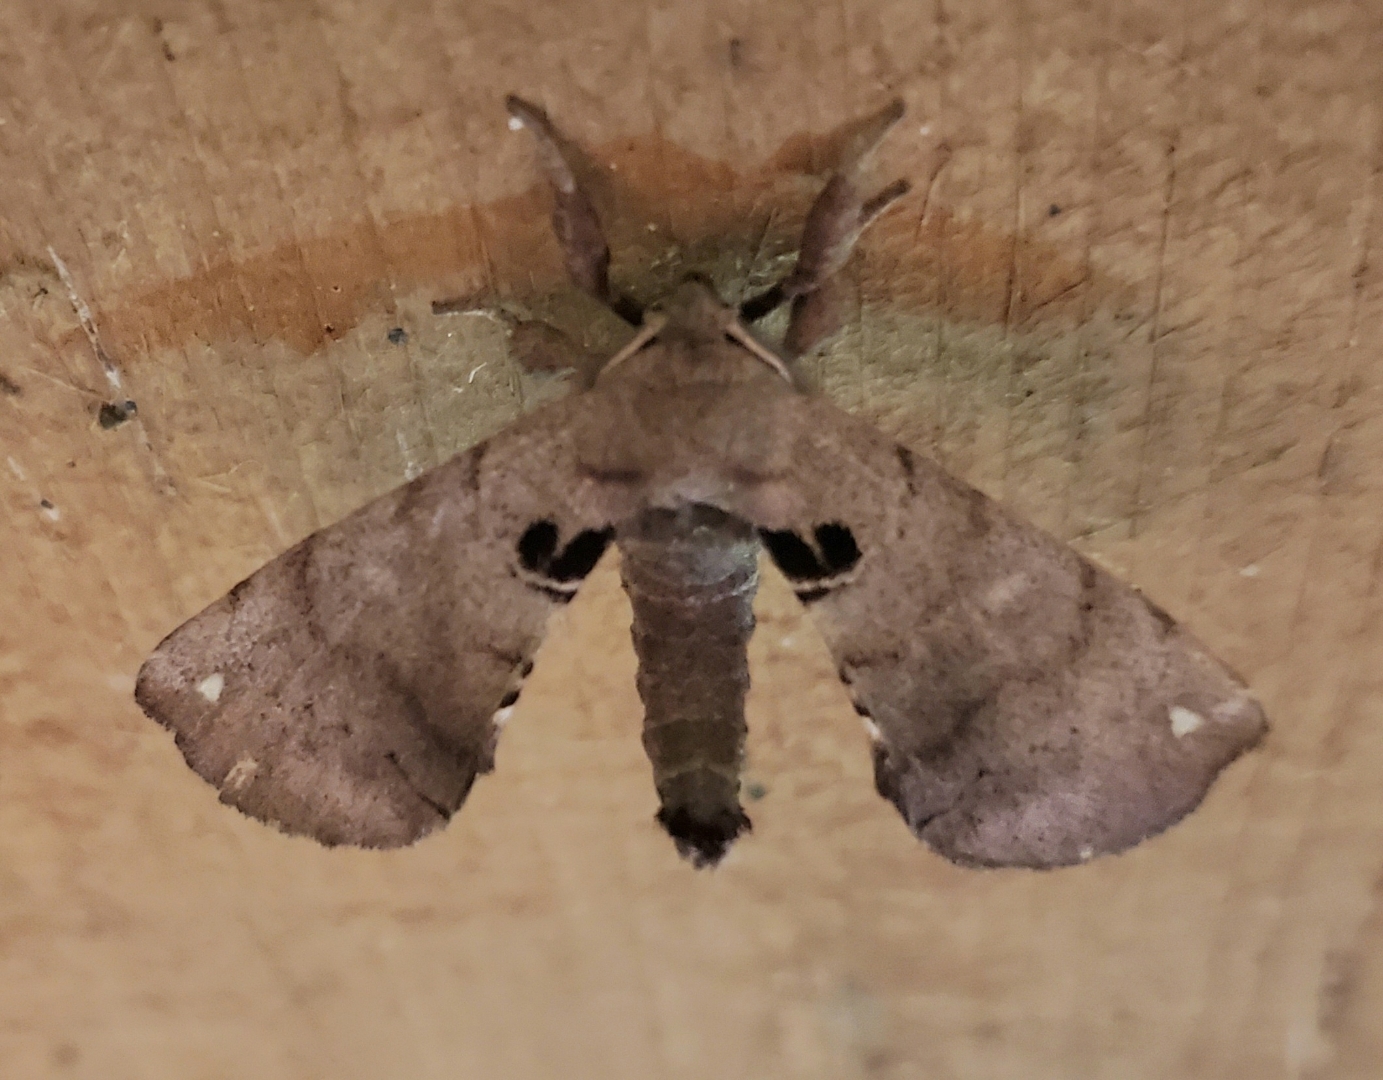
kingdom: Animalia
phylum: Arthropoda
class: Insecta
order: Lepidoptera
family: Apatelodidae
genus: Hygrochroa
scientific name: Hygrochroa Apatelodes torrefacta
